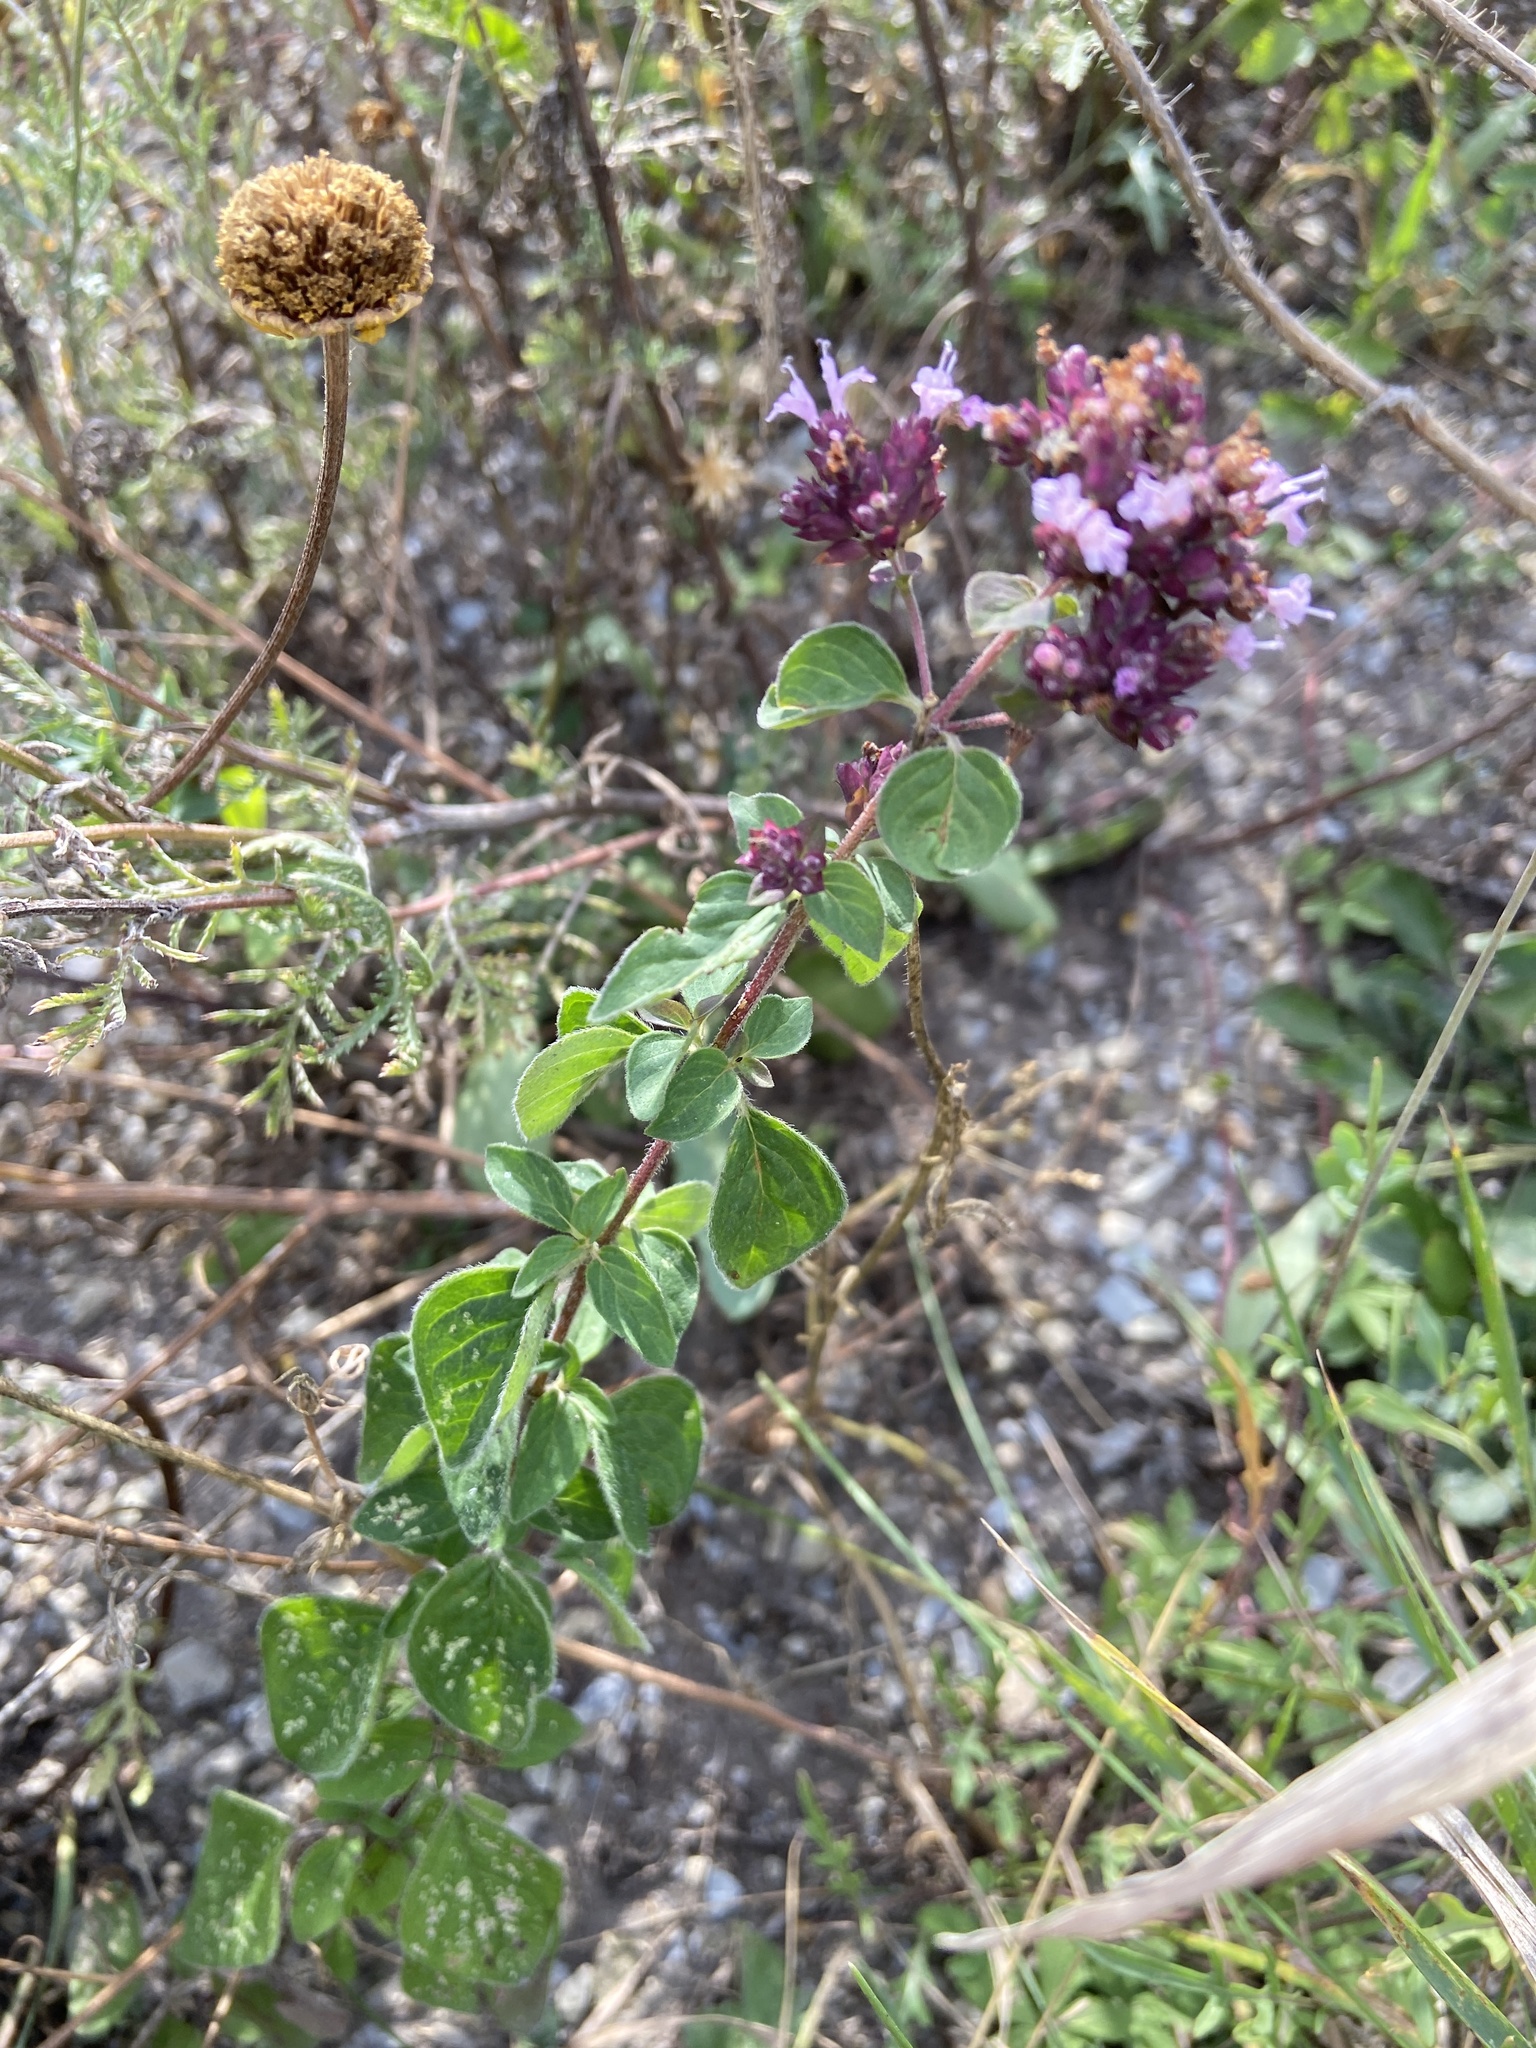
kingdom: Plantae
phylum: Tracheophyta
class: Magnoliopsida
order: Lamiales
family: Lamiaceae
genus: Origanum
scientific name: Origanum vulgare
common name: Wild marjoram
